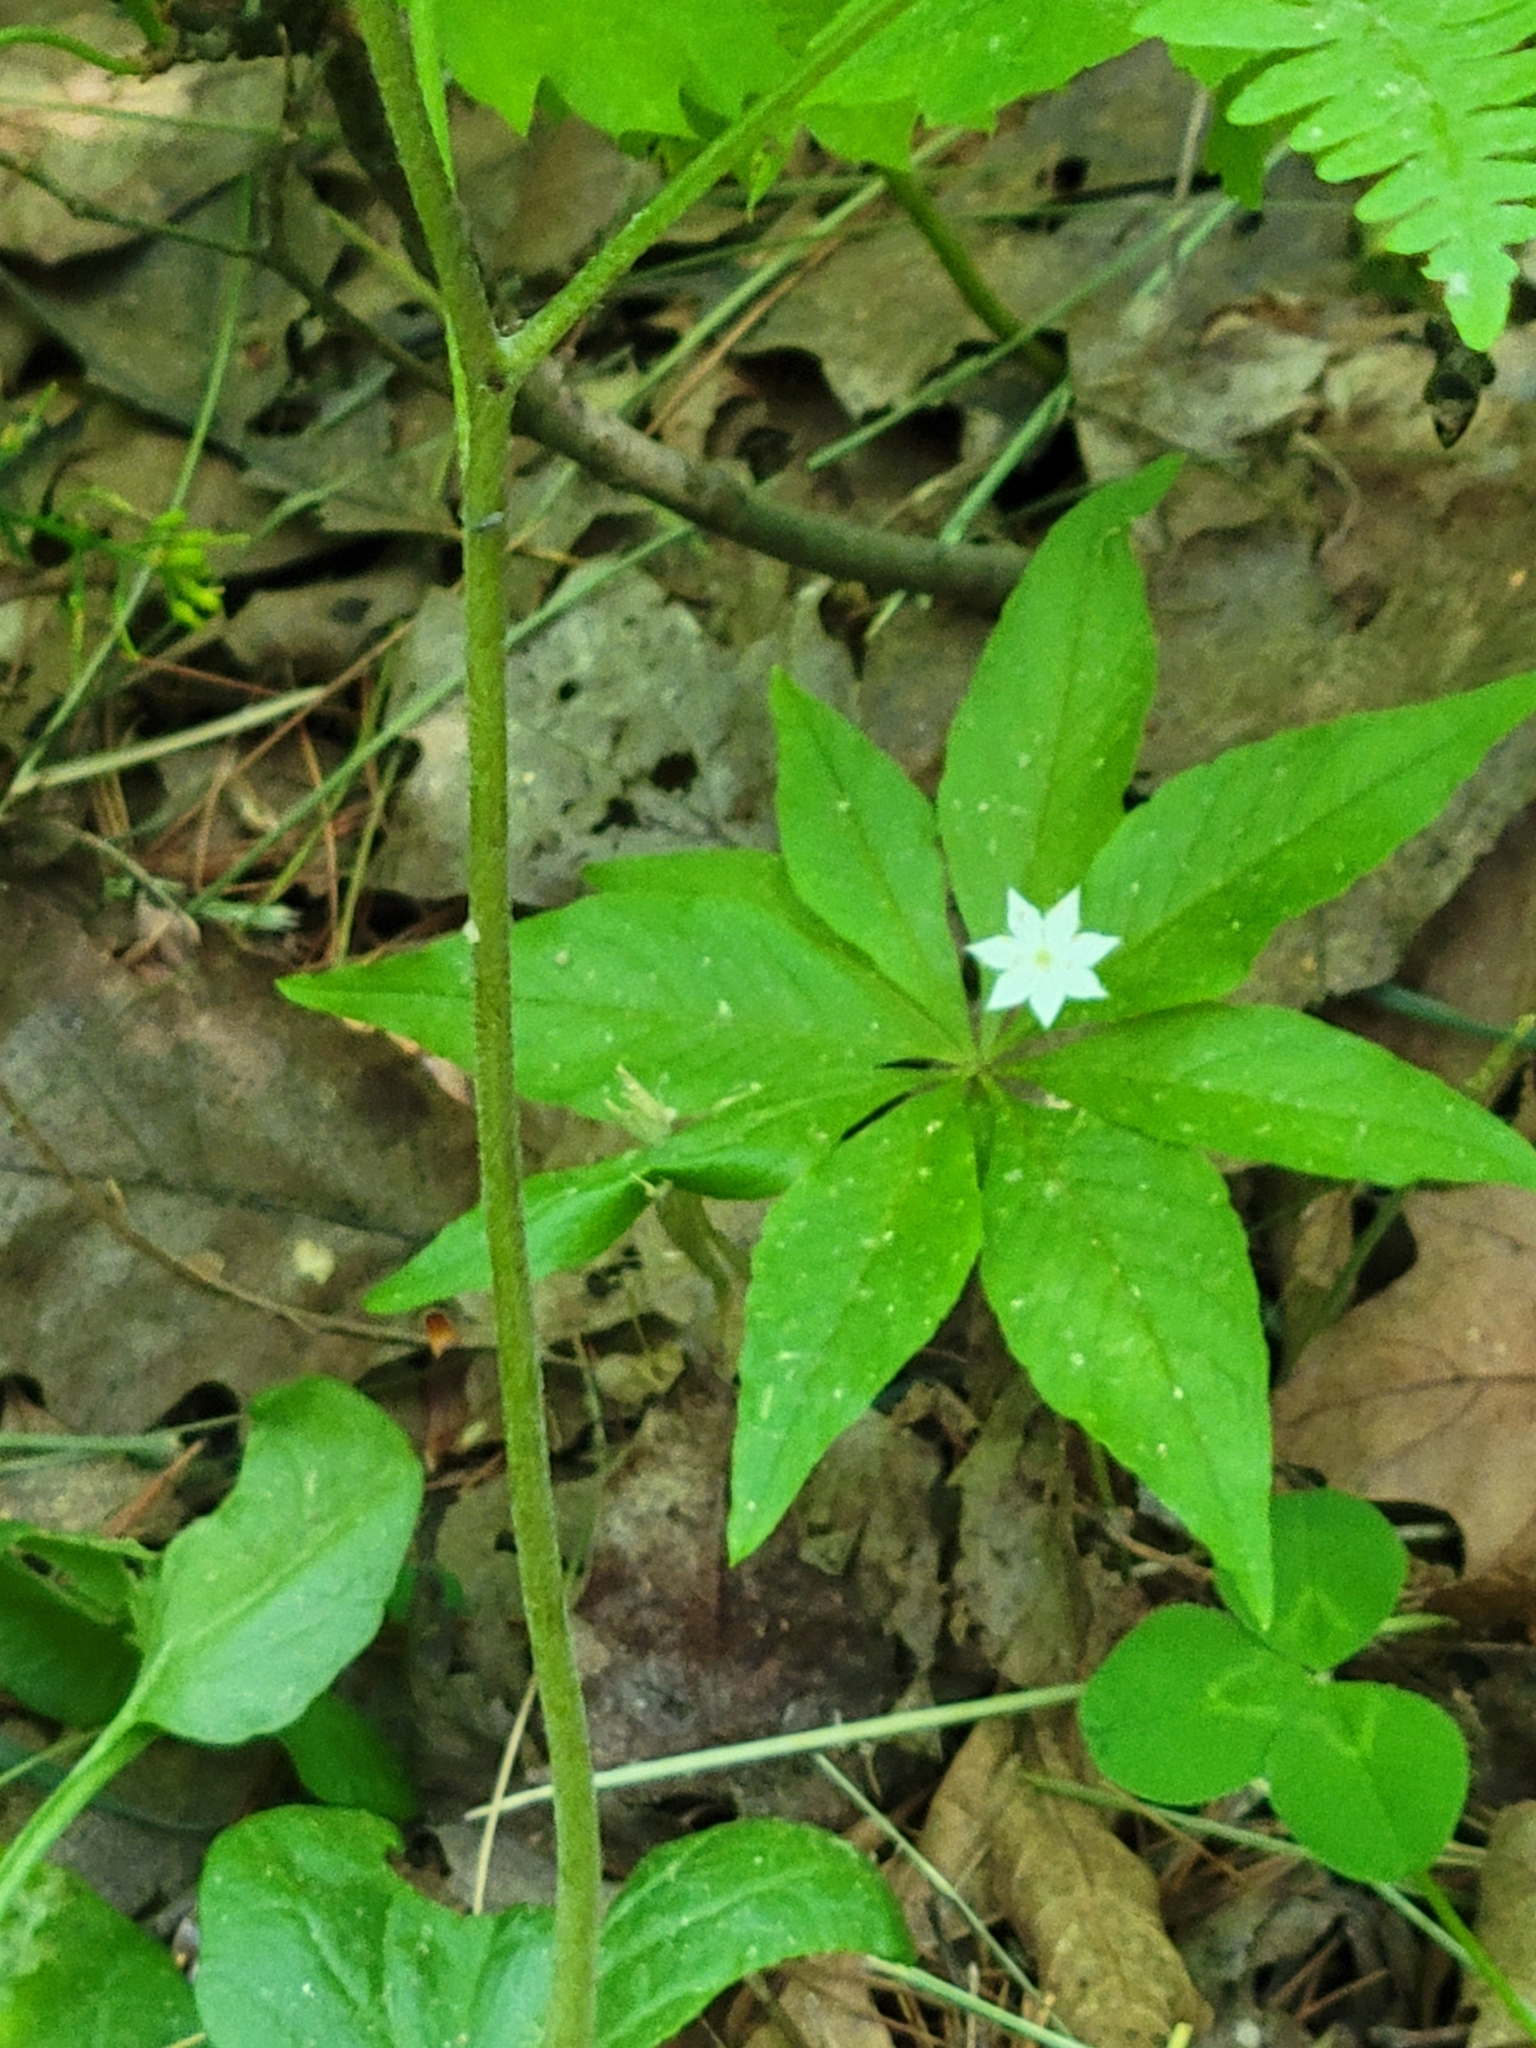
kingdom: Plantae
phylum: Tracheophyta
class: Magnoliopsida
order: Ericales
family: Primulaceae
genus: Lysimachia
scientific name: Lysimachia borealis
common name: American starflower
